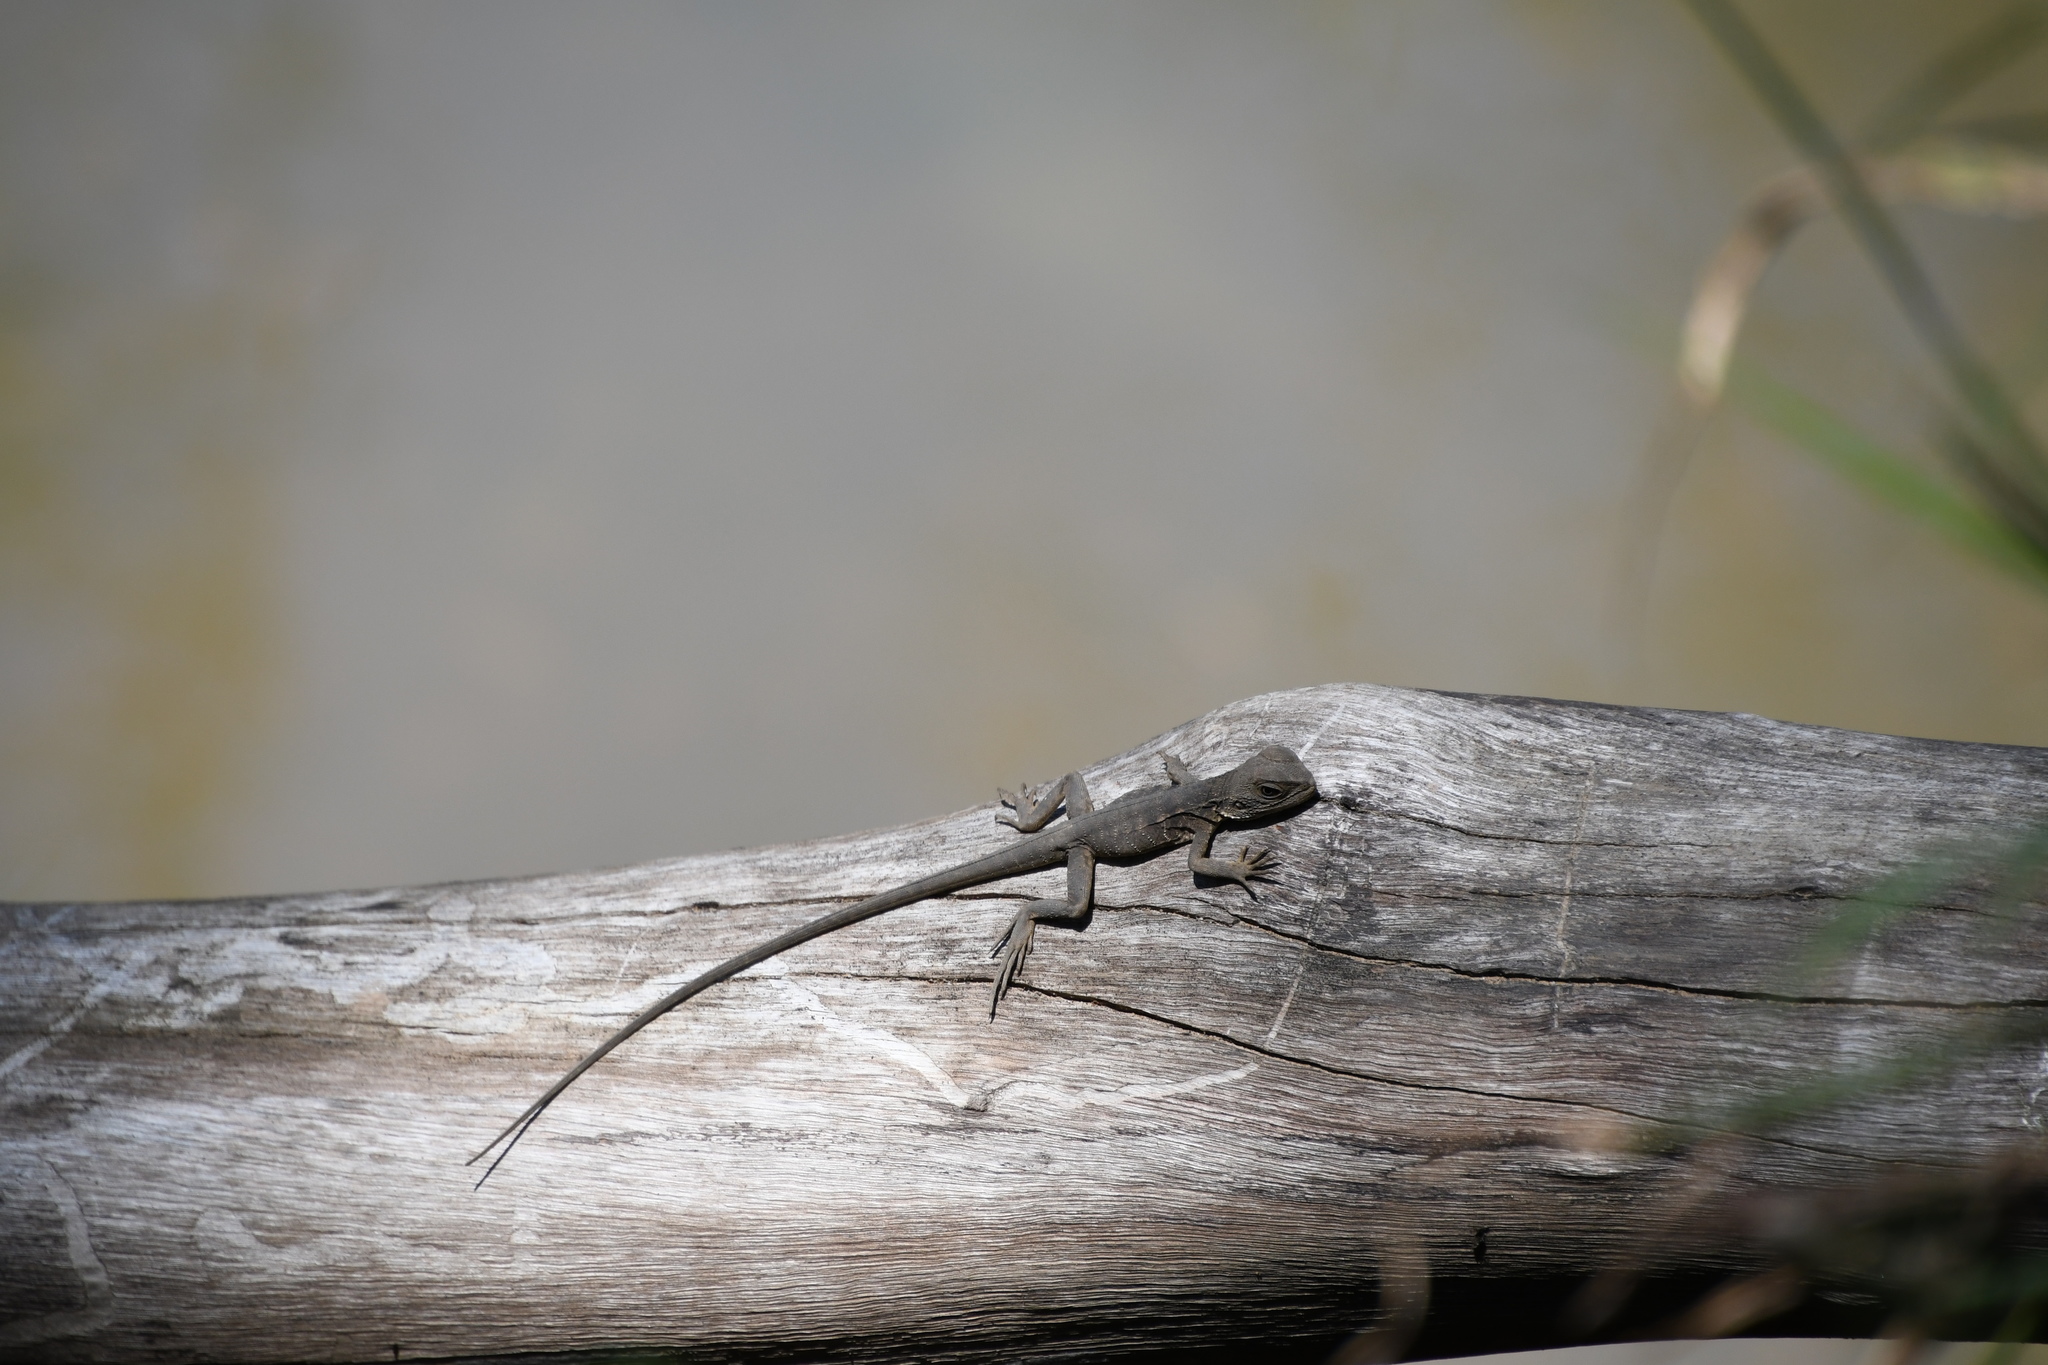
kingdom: Animalia
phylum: Chordata
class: Squamata
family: Agamidae
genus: Intellagama
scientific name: Intellagama lesueurii
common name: Eastern water dragon
